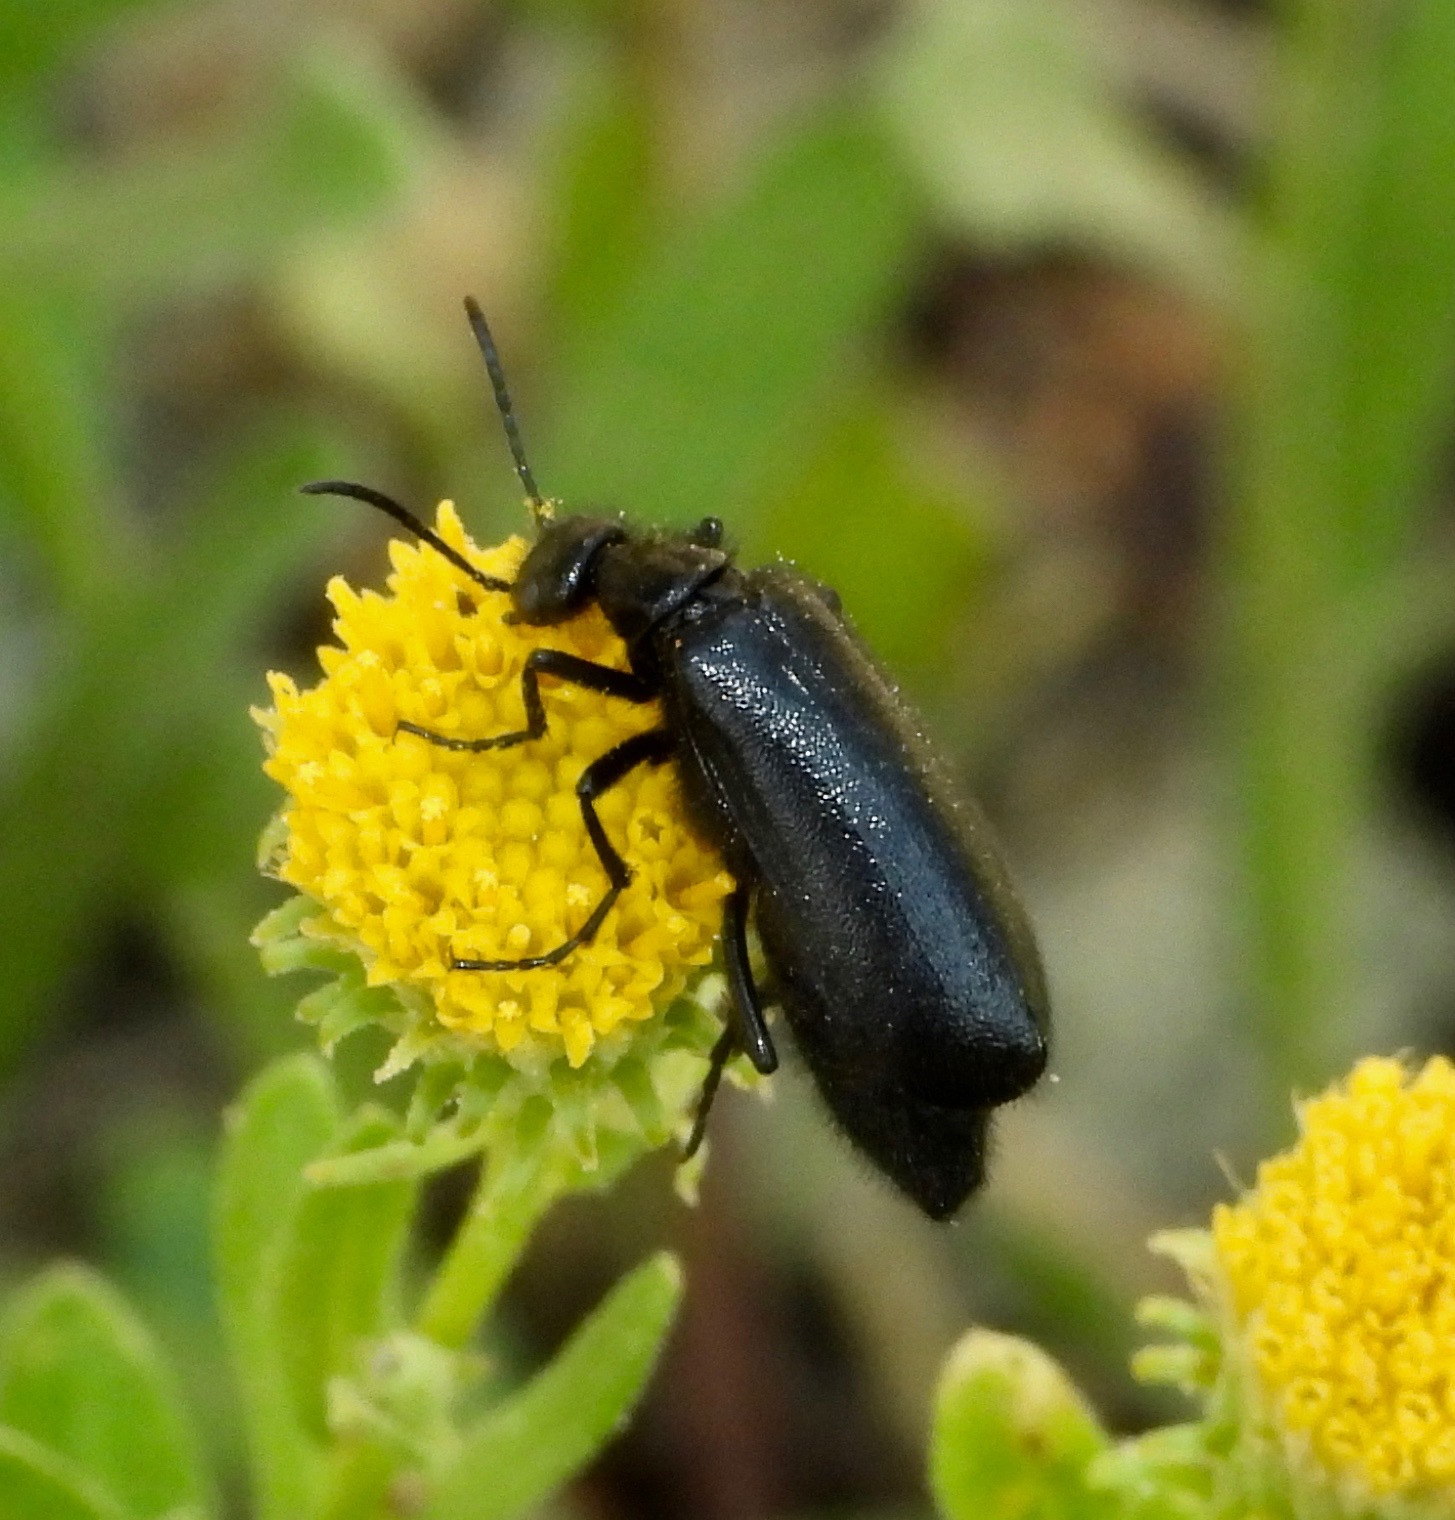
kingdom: Animalia
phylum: Arthropoda
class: Insecta
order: Coleoptera
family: Meloidae
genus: Epicauta
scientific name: Epicauta puncticollis
